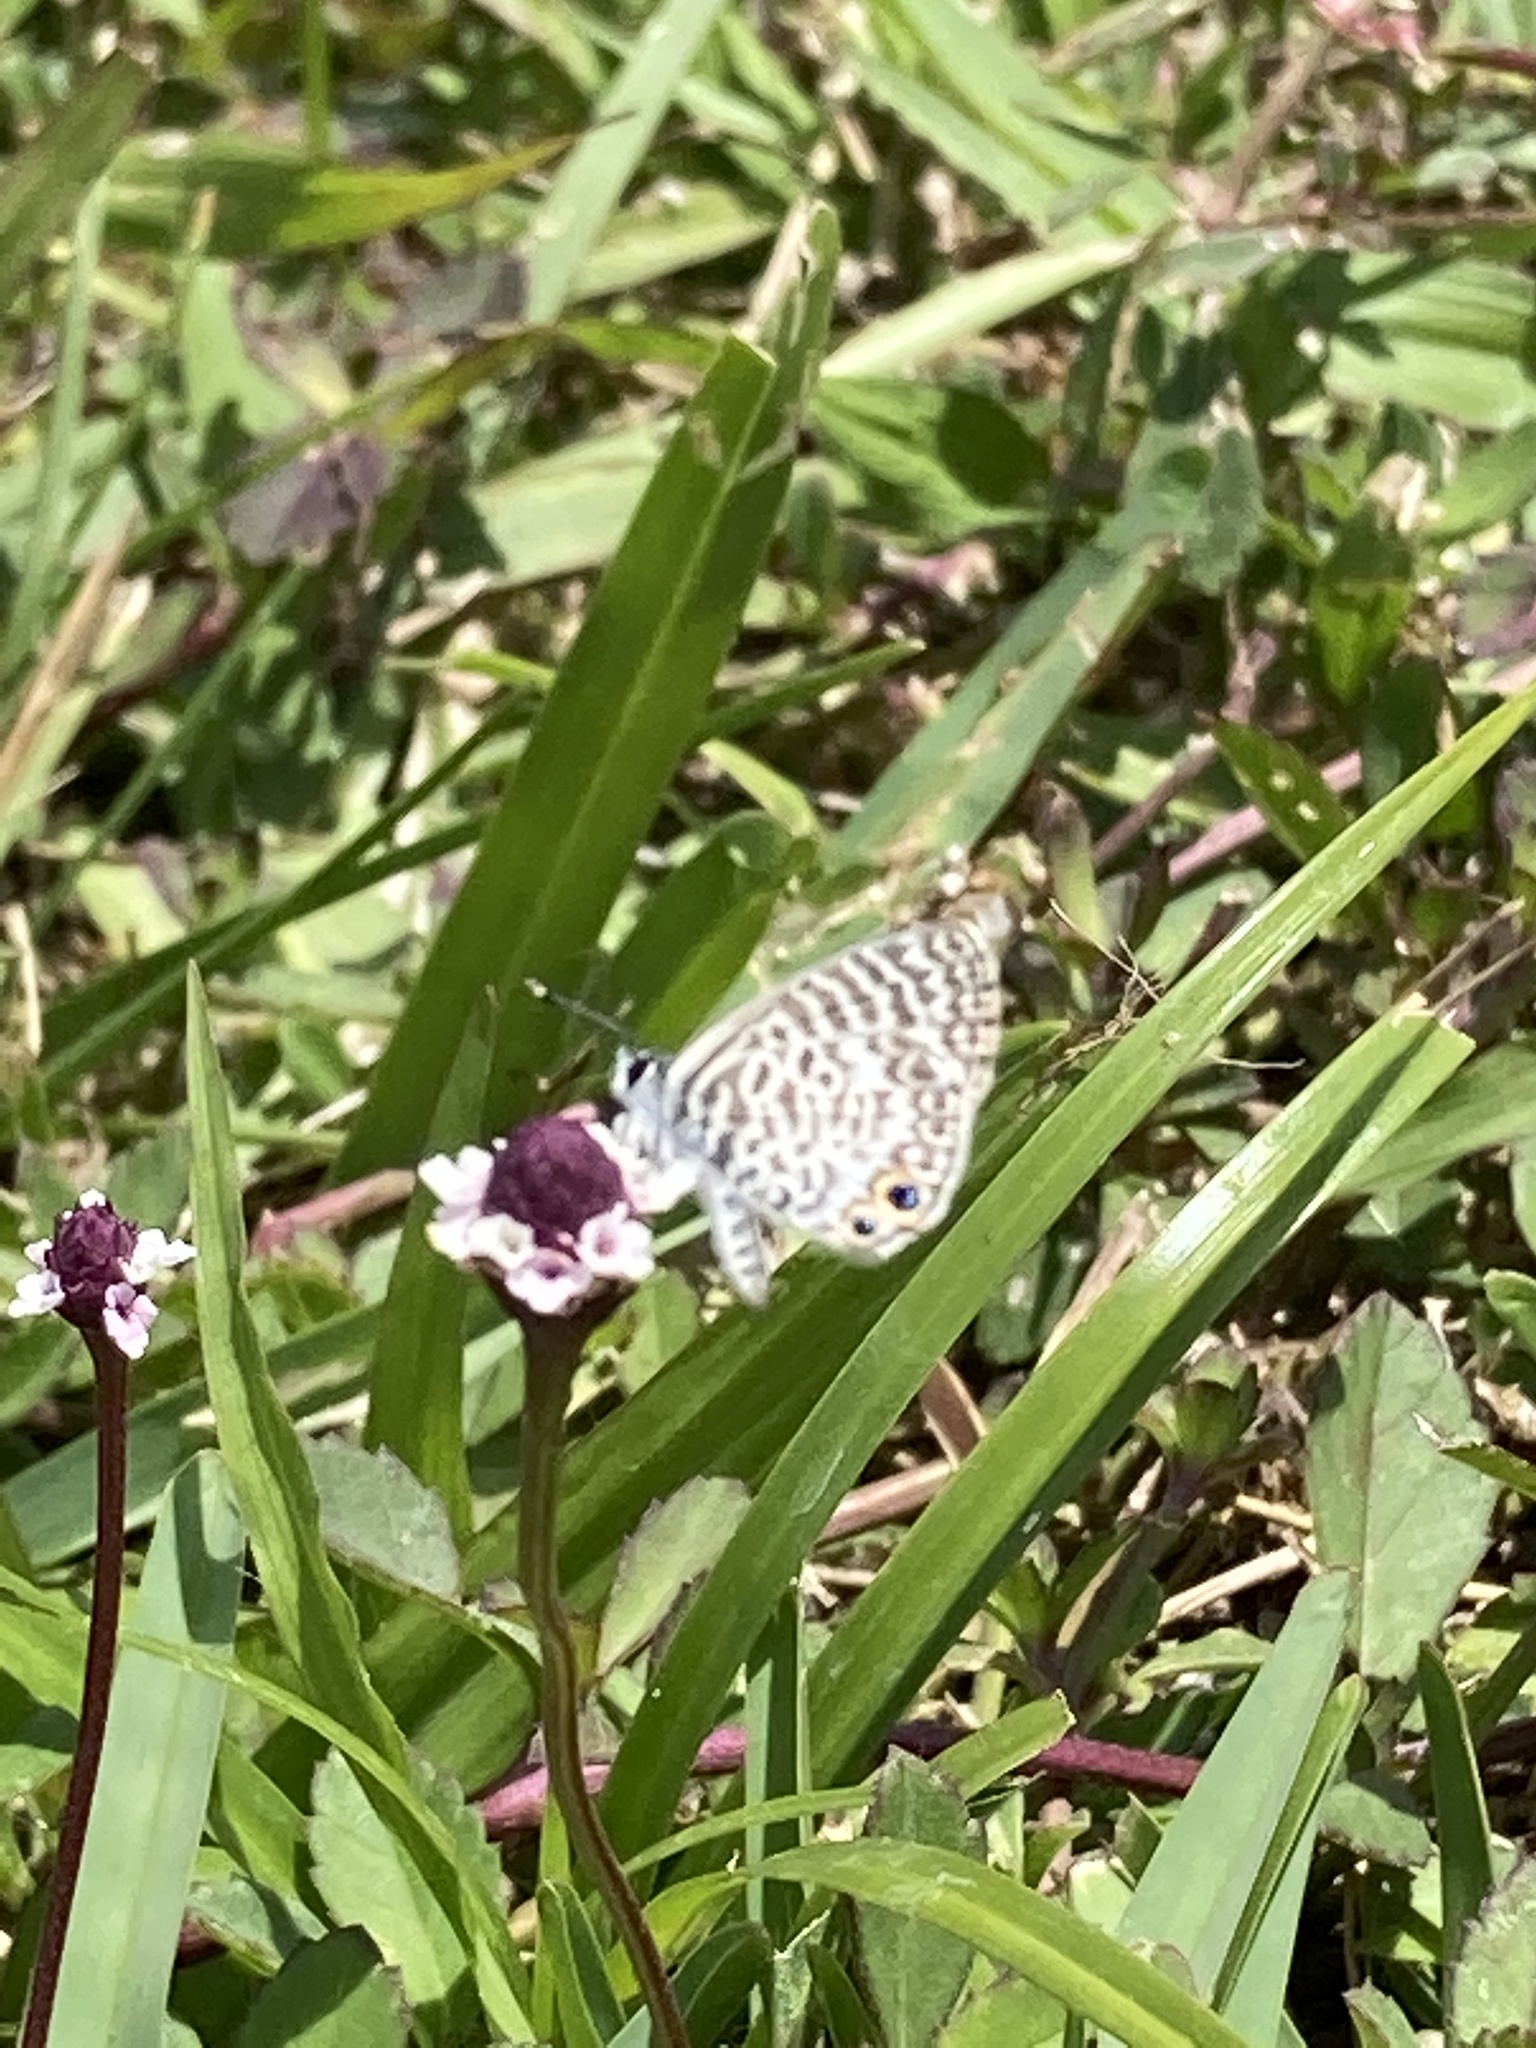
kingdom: Animalia
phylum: Arthropoda
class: Insecta
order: Lepidoptera
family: Lycaenidae
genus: Leptotes
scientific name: Leptotes cassius
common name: Cassius blue
